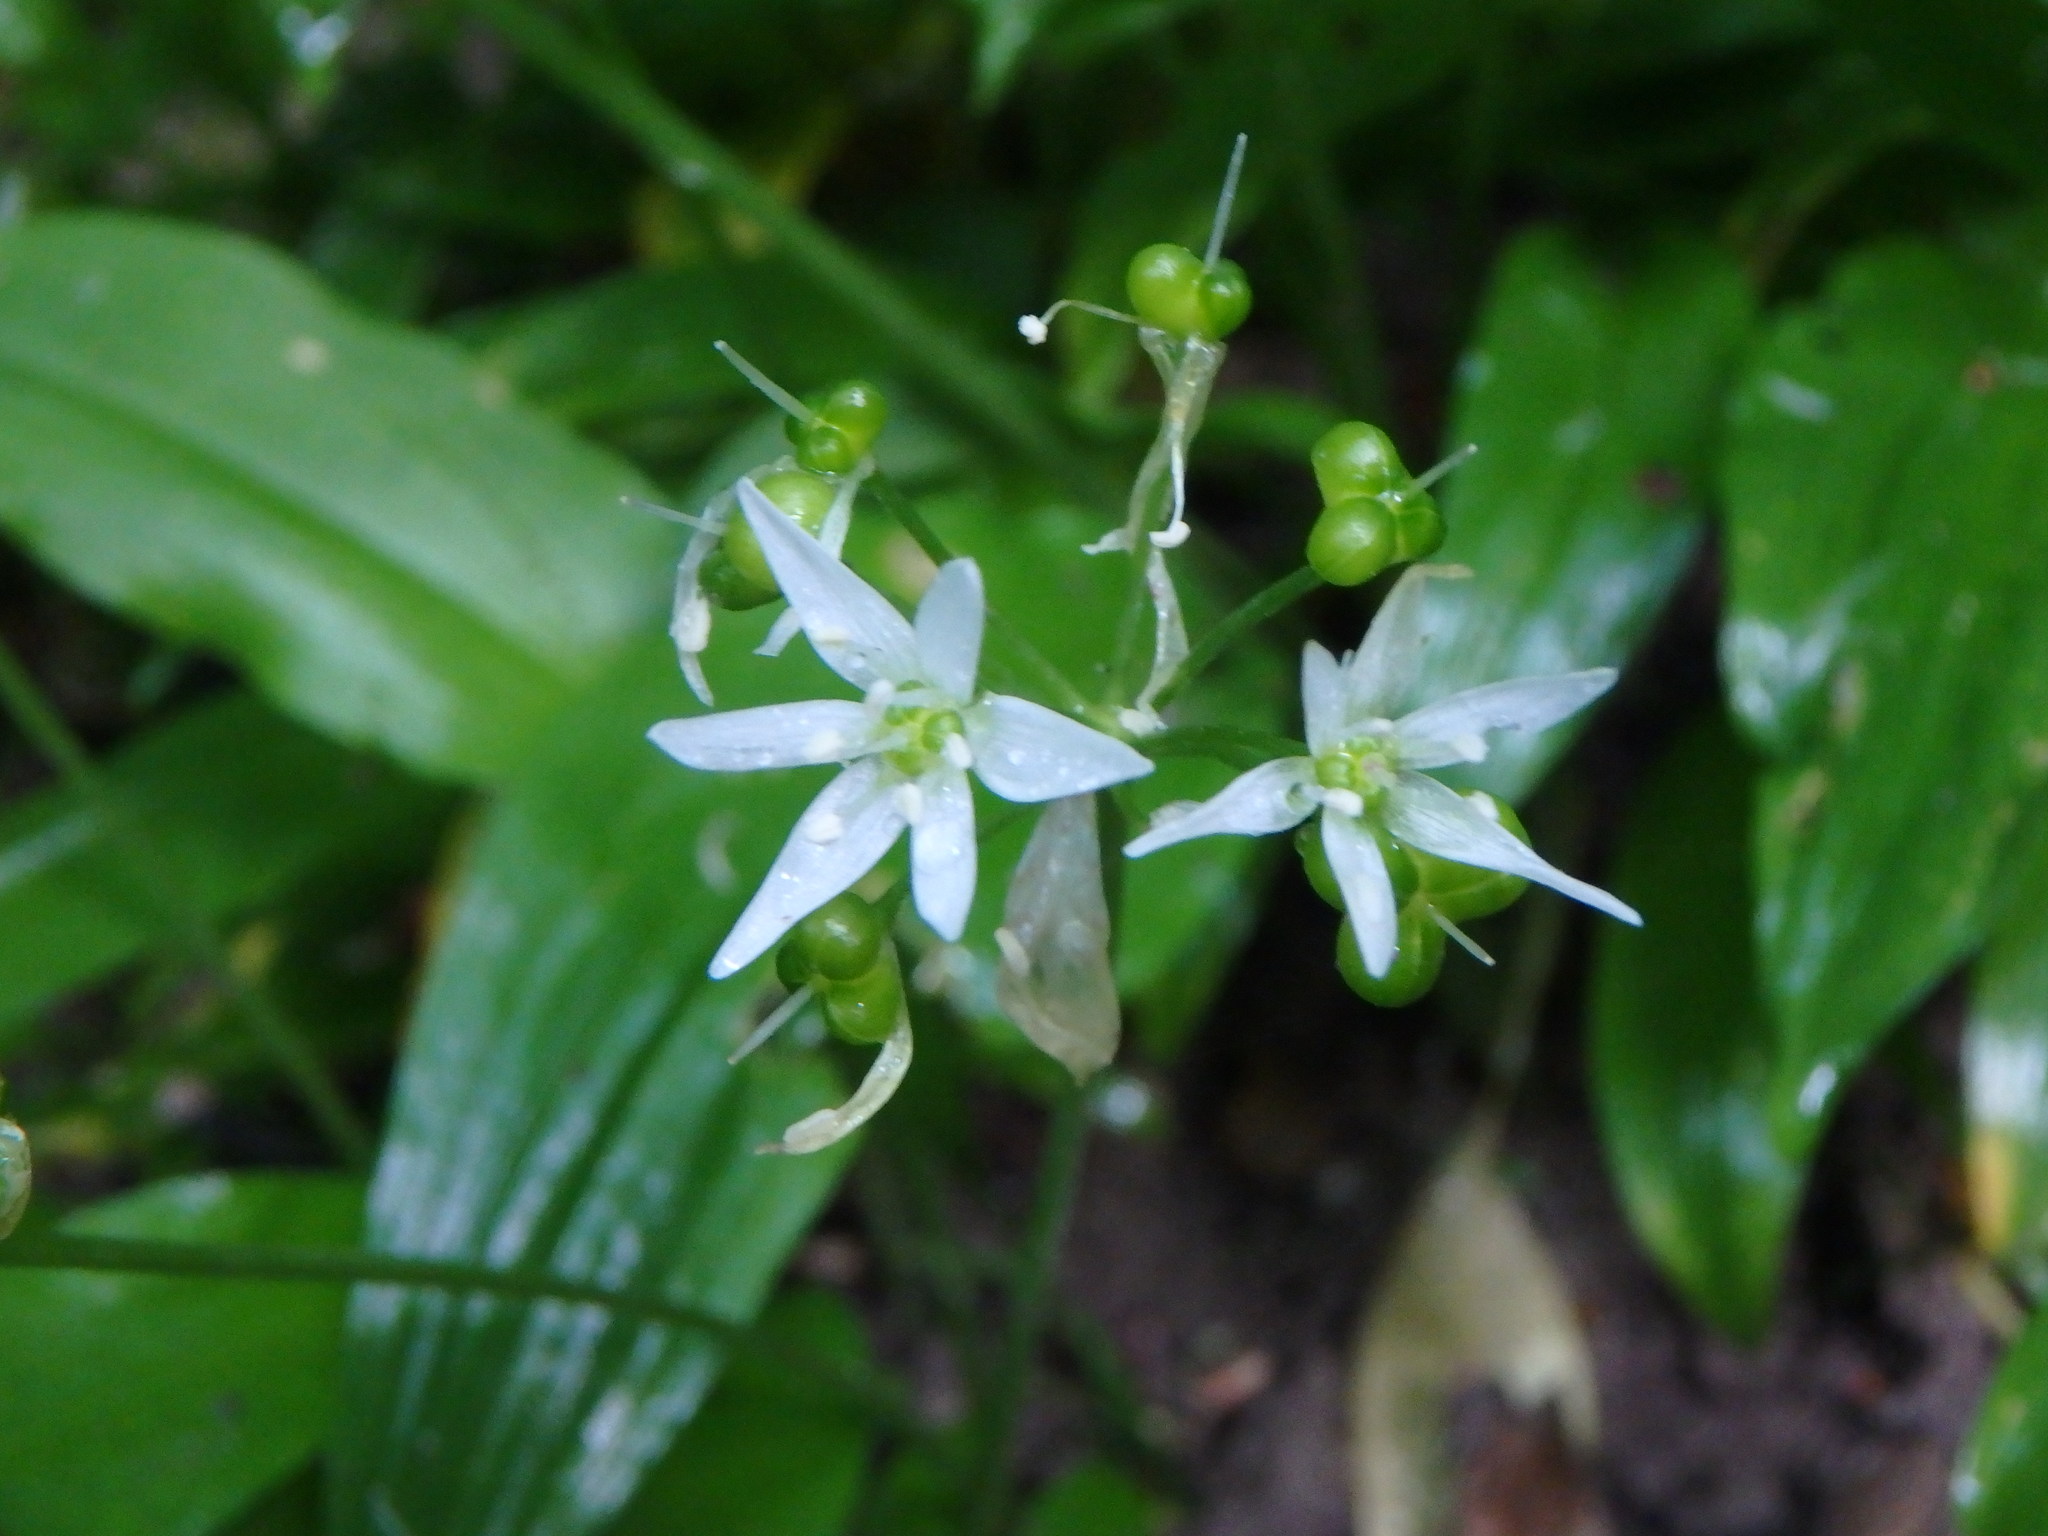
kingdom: Plantae
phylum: Tracheophyta
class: Liliopsida
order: Asparagales
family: Amaryllidaceae
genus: Allium
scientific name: Allium ursinum
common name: Ramsons
